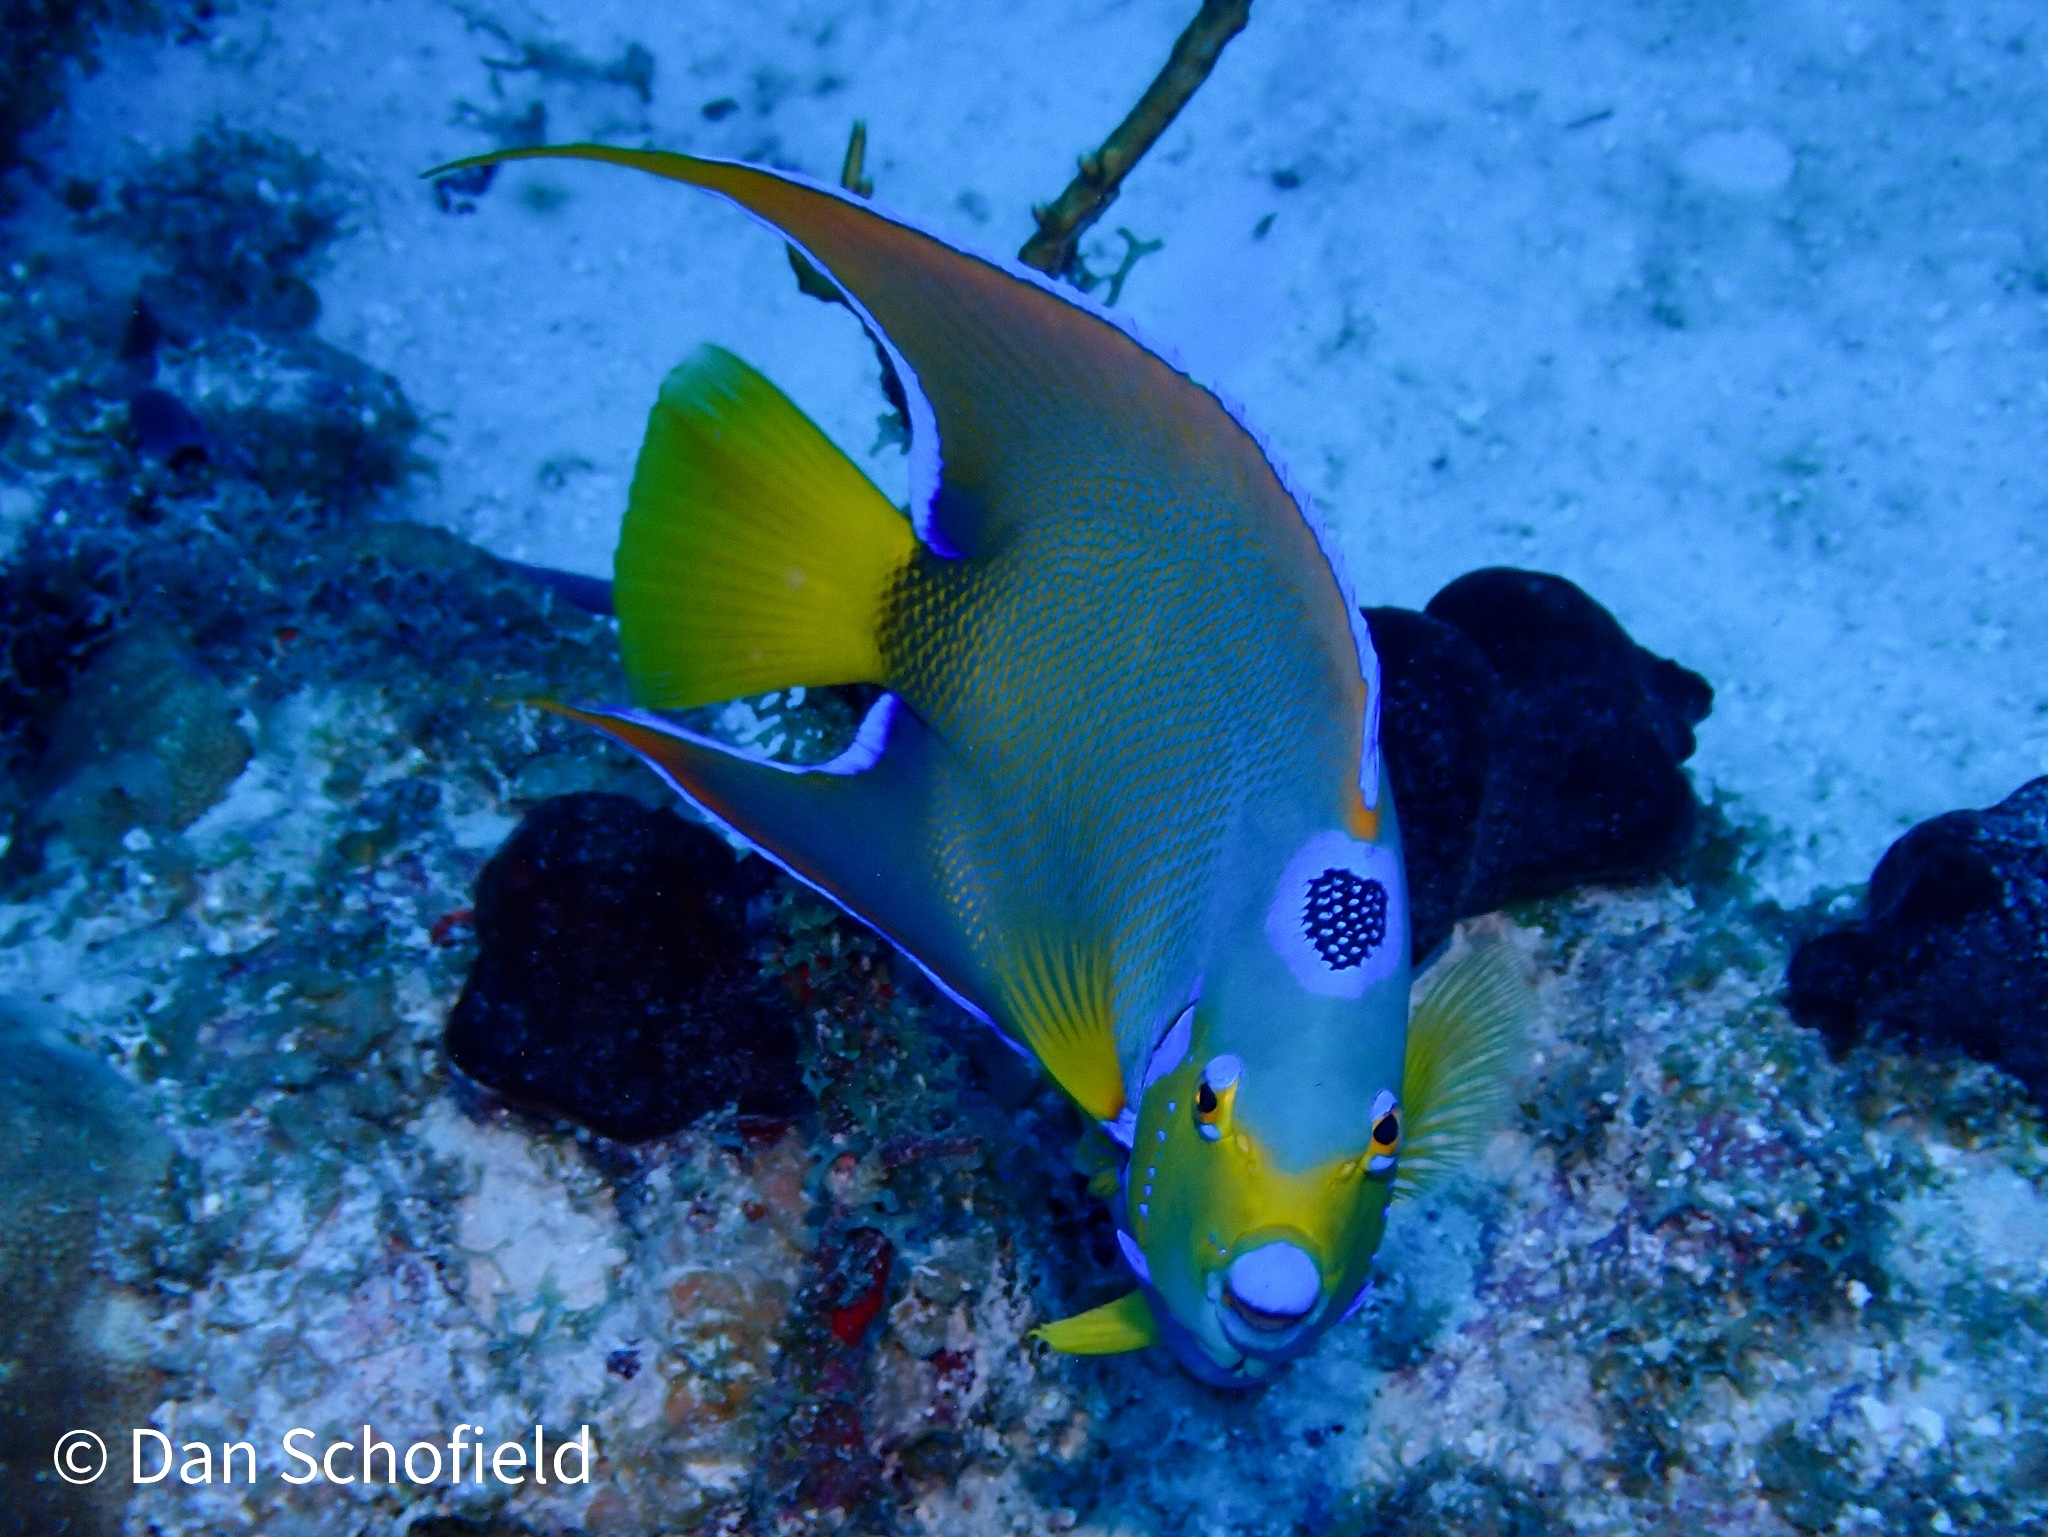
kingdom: Animalia
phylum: Chordata
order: Perciformes
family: Pomacanthidae
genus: Holacanthus
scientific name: Holacanthus ciliaris
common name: Queen angelfish
